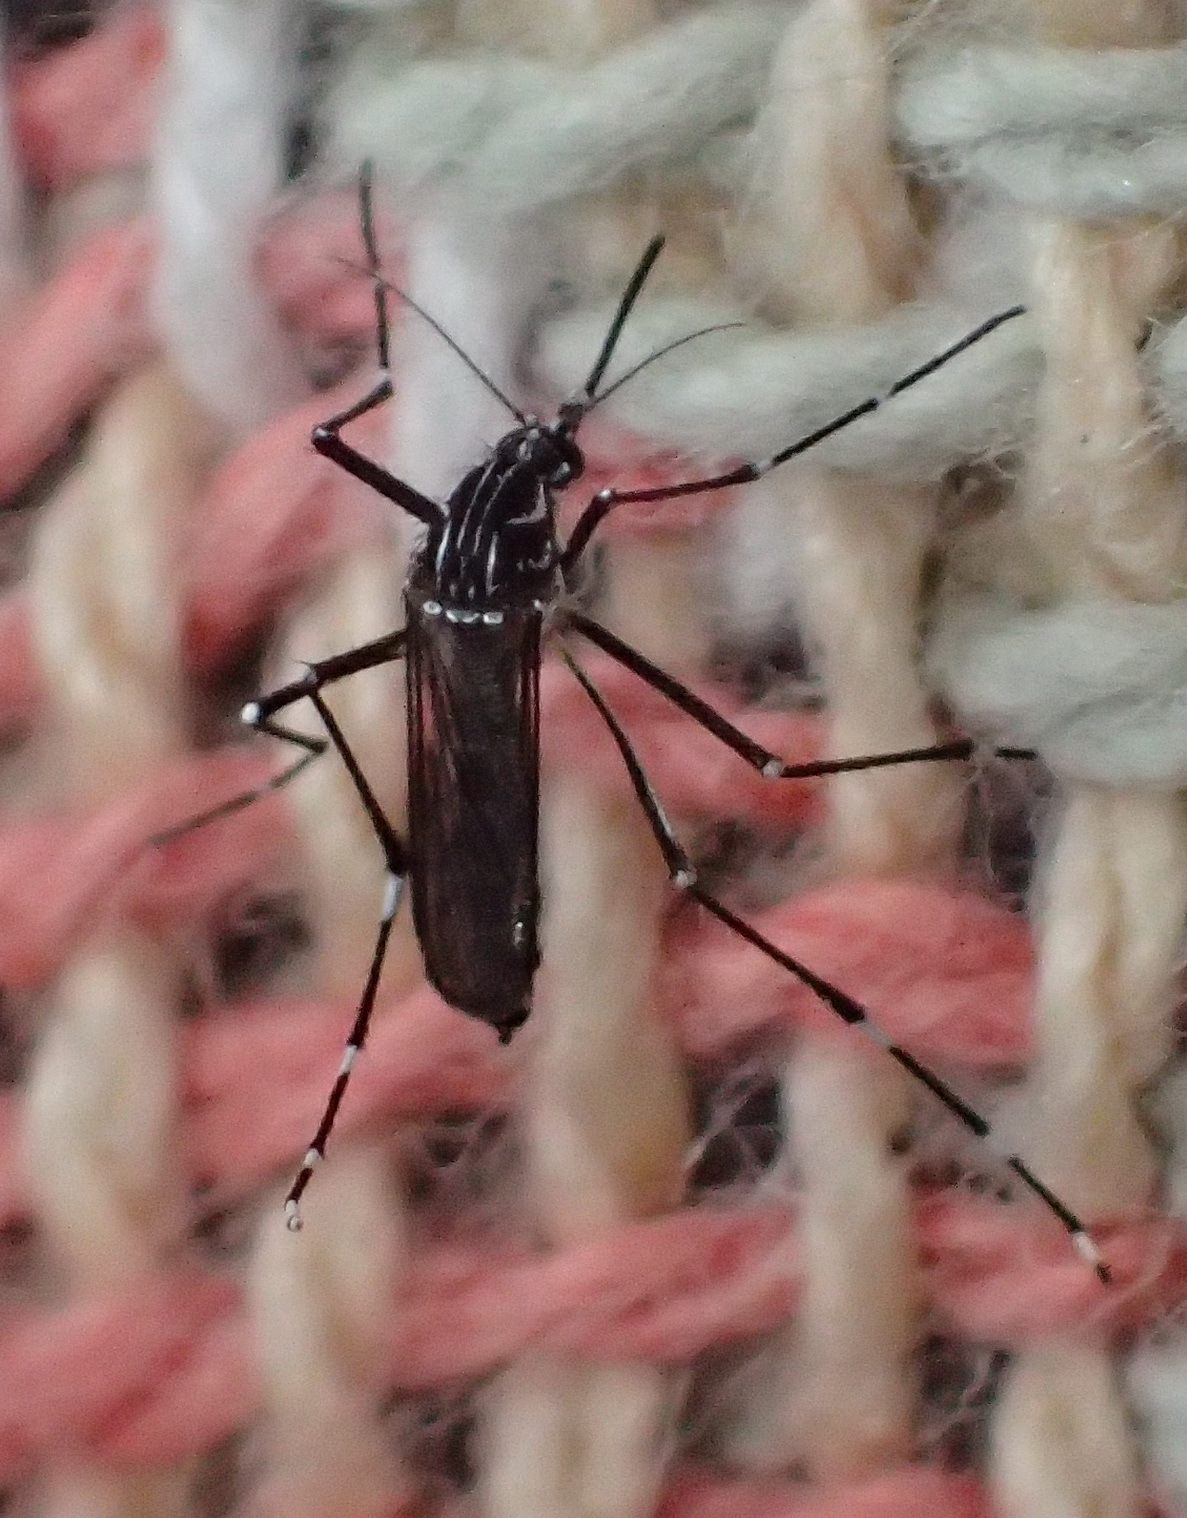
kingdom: Animalia
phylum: Arthropoda
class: Insecta
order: Diptera
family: Culicidae
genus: Aedes
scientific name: Aedes aegypti
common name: Yellow fever mosquito
